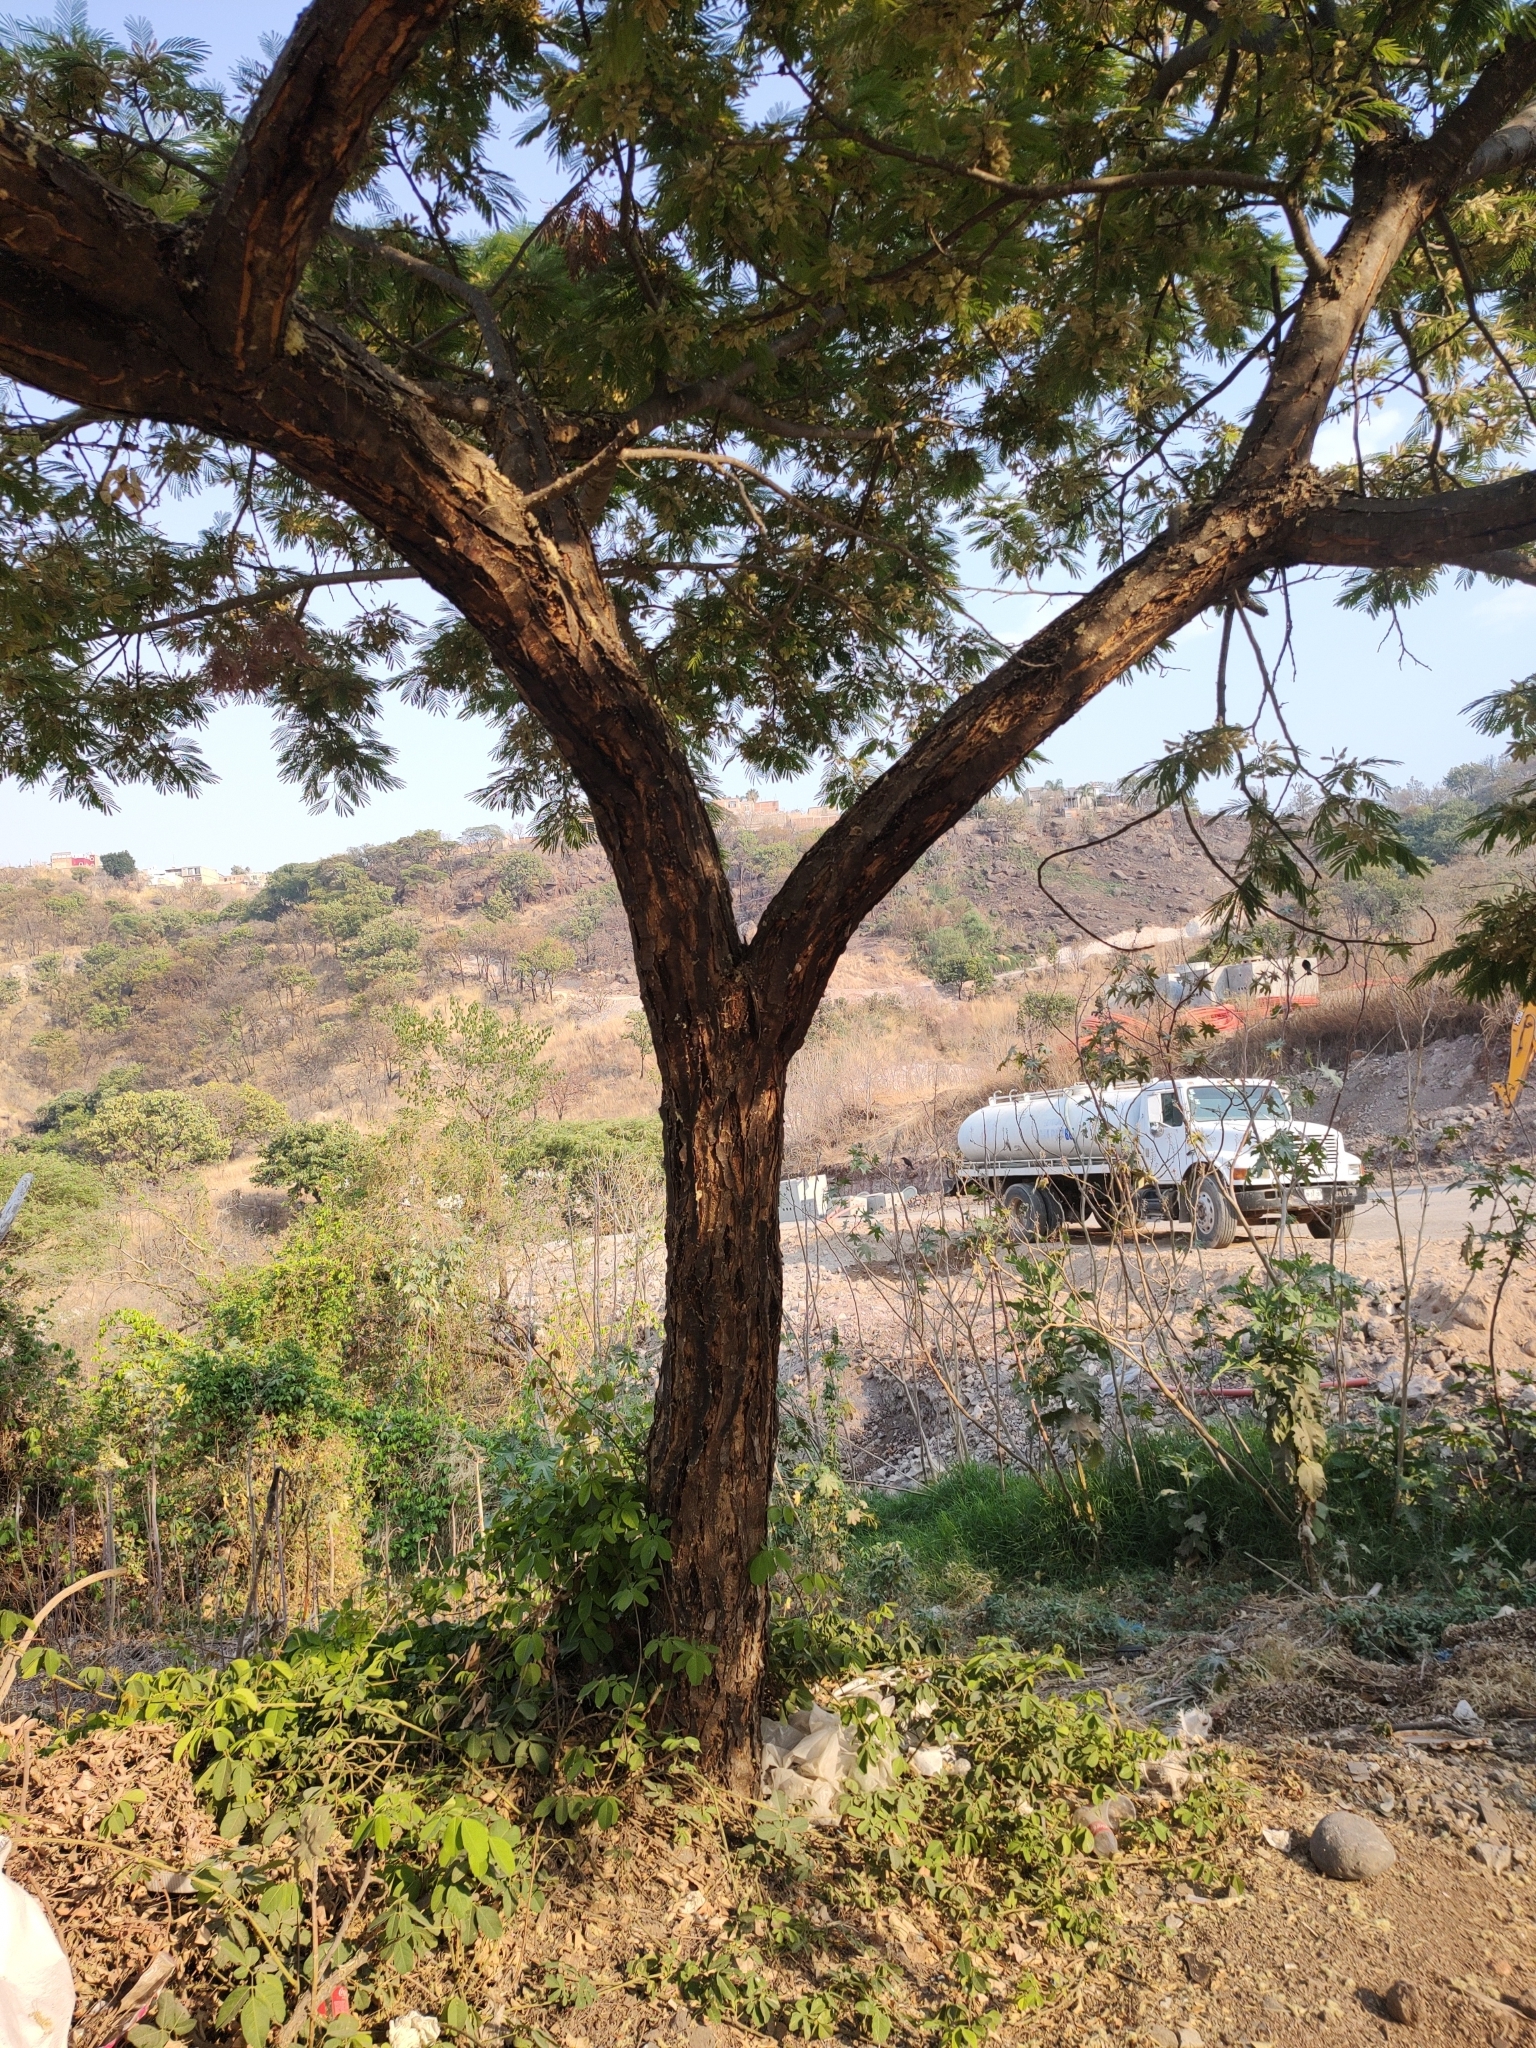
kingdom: Plantae
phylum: Tracheophyta
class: Magnoliopsida
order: Fabales
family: Fabaceae
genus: Lysiloma
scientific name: Lysiloma acapulcense
